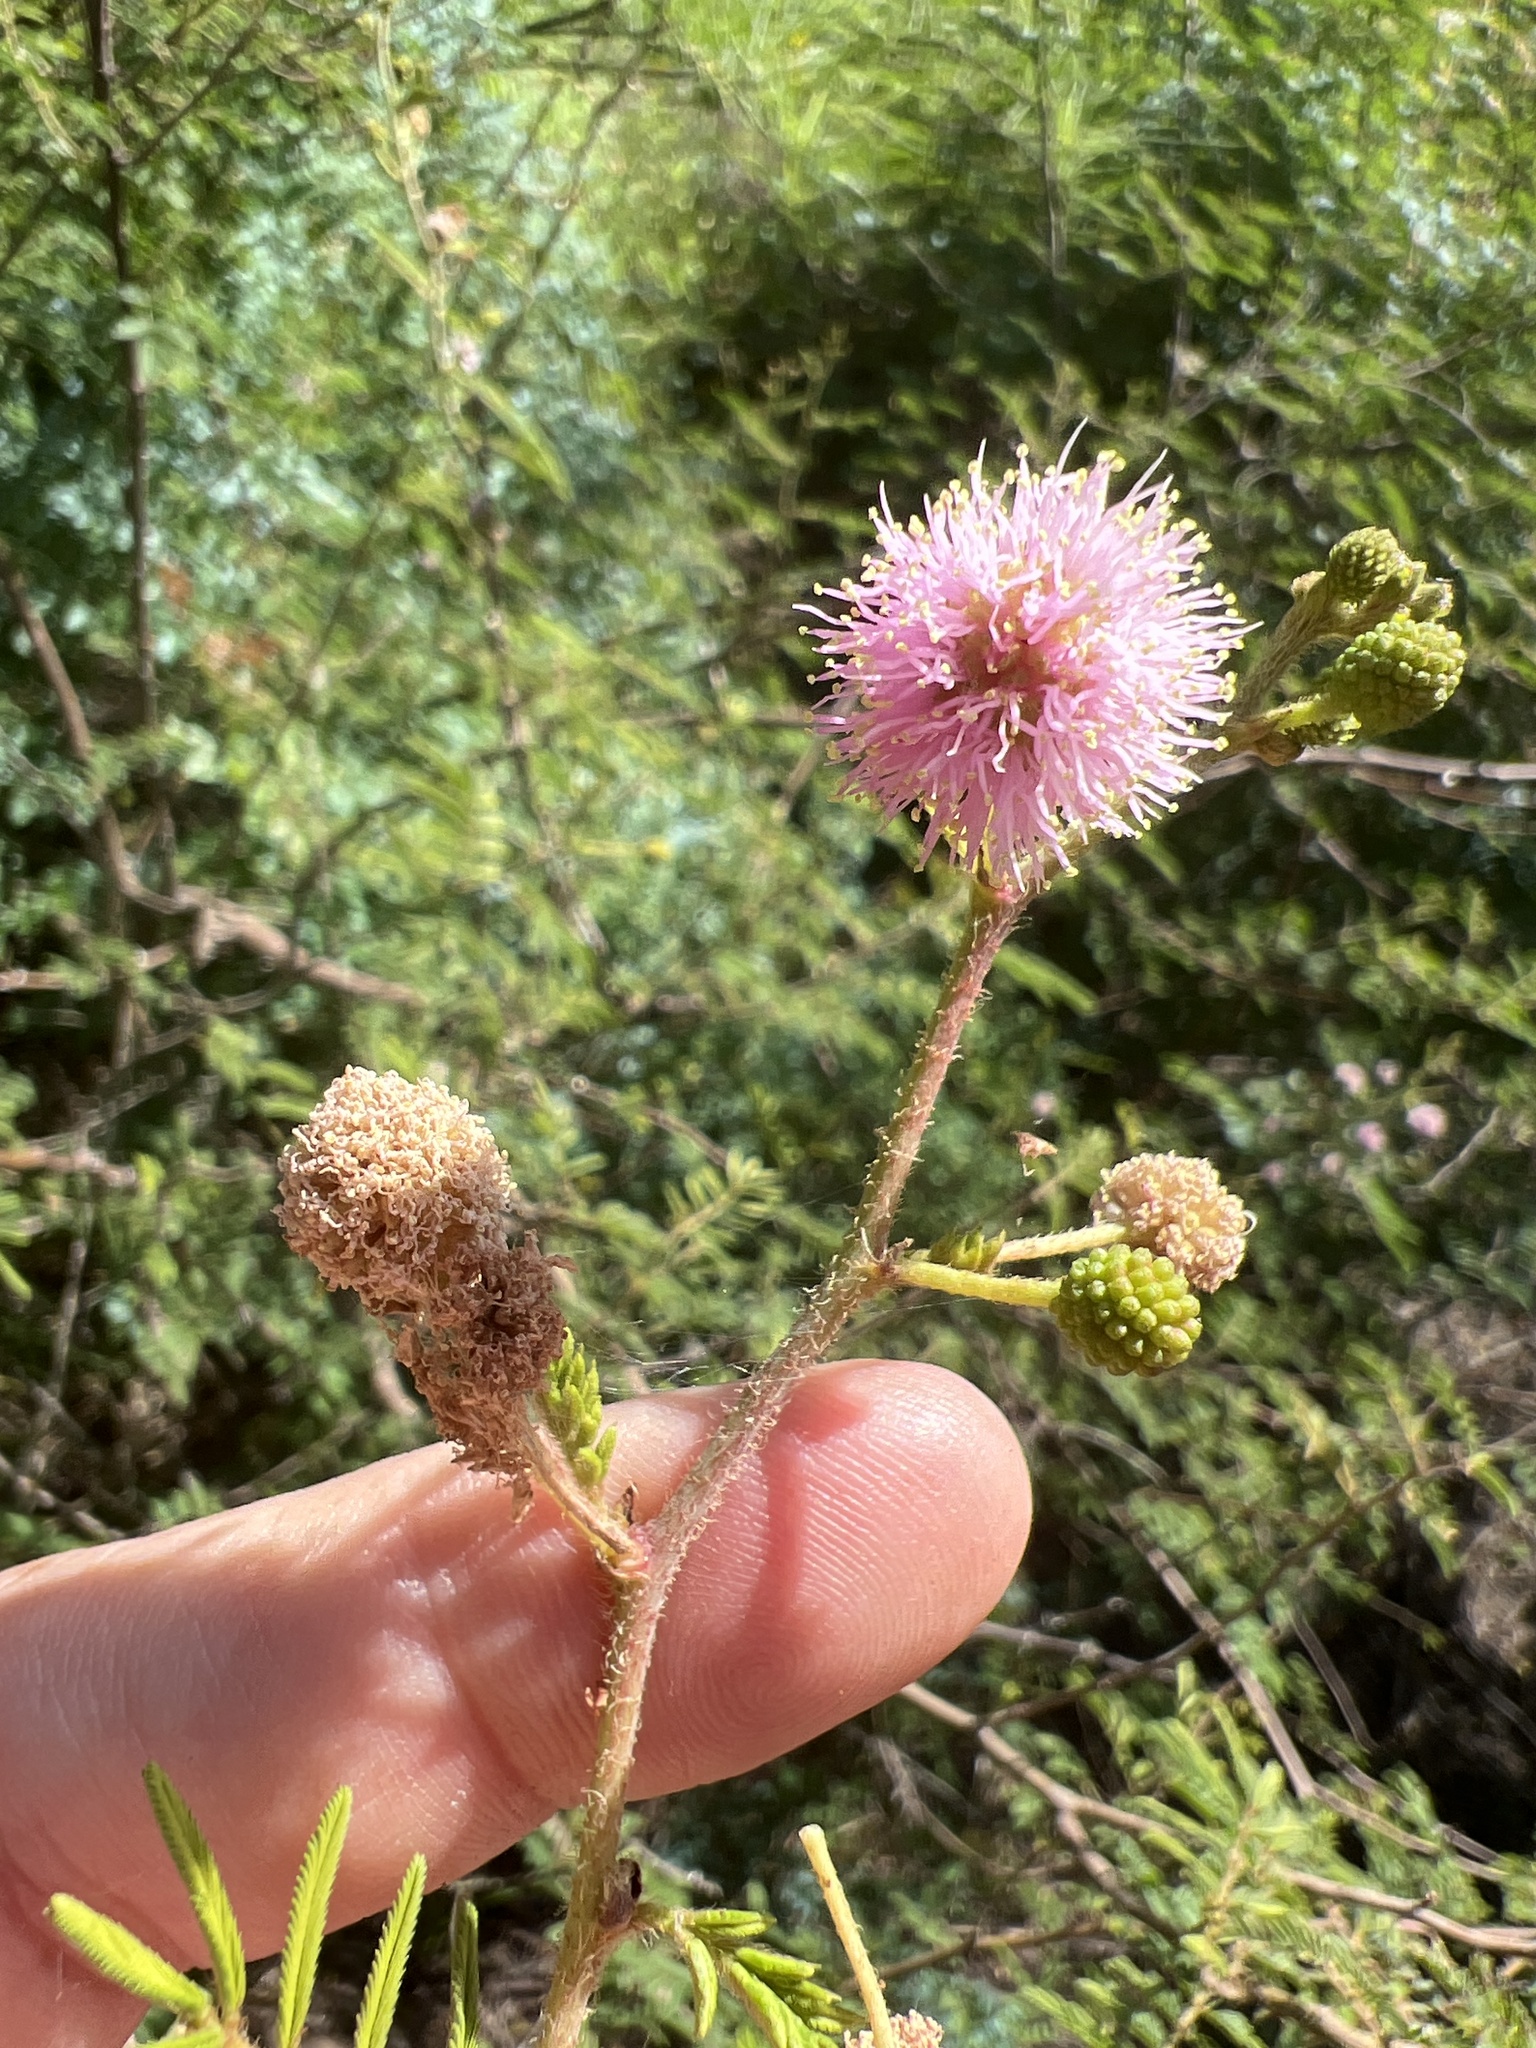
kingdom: Plantae
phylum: Tracheophyta
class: Magnoliopsida
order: Fabales
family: Fabaceae
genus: Mimosa
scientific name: Mimosa pigra
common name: Black mimosa
